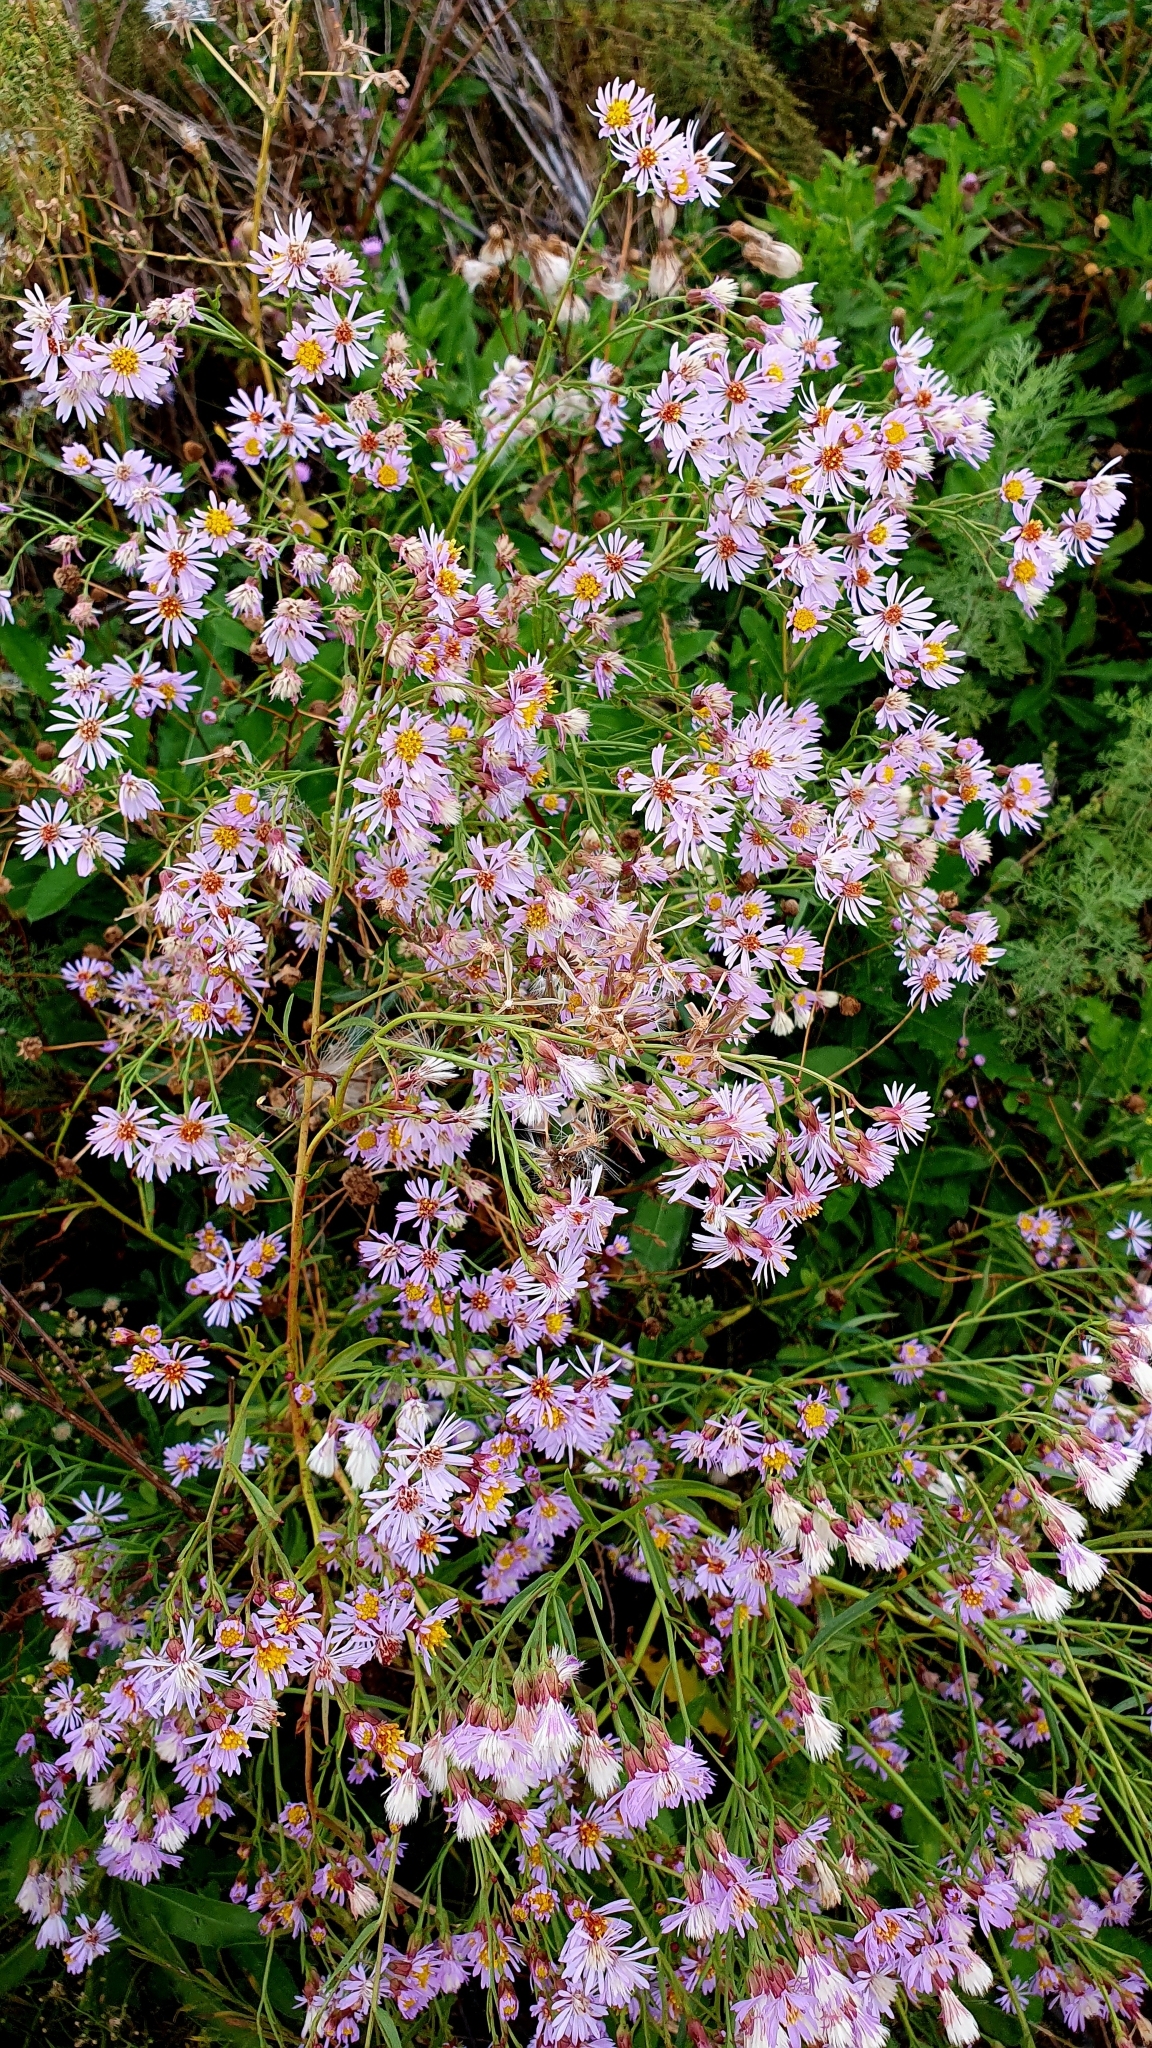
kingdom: Plantae
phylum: Tracheophyta
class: Magnoliopsida
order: Asterales
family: Asteraceae
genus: Tripolium
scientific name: Tripolium pannonicum
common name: Sea aster
